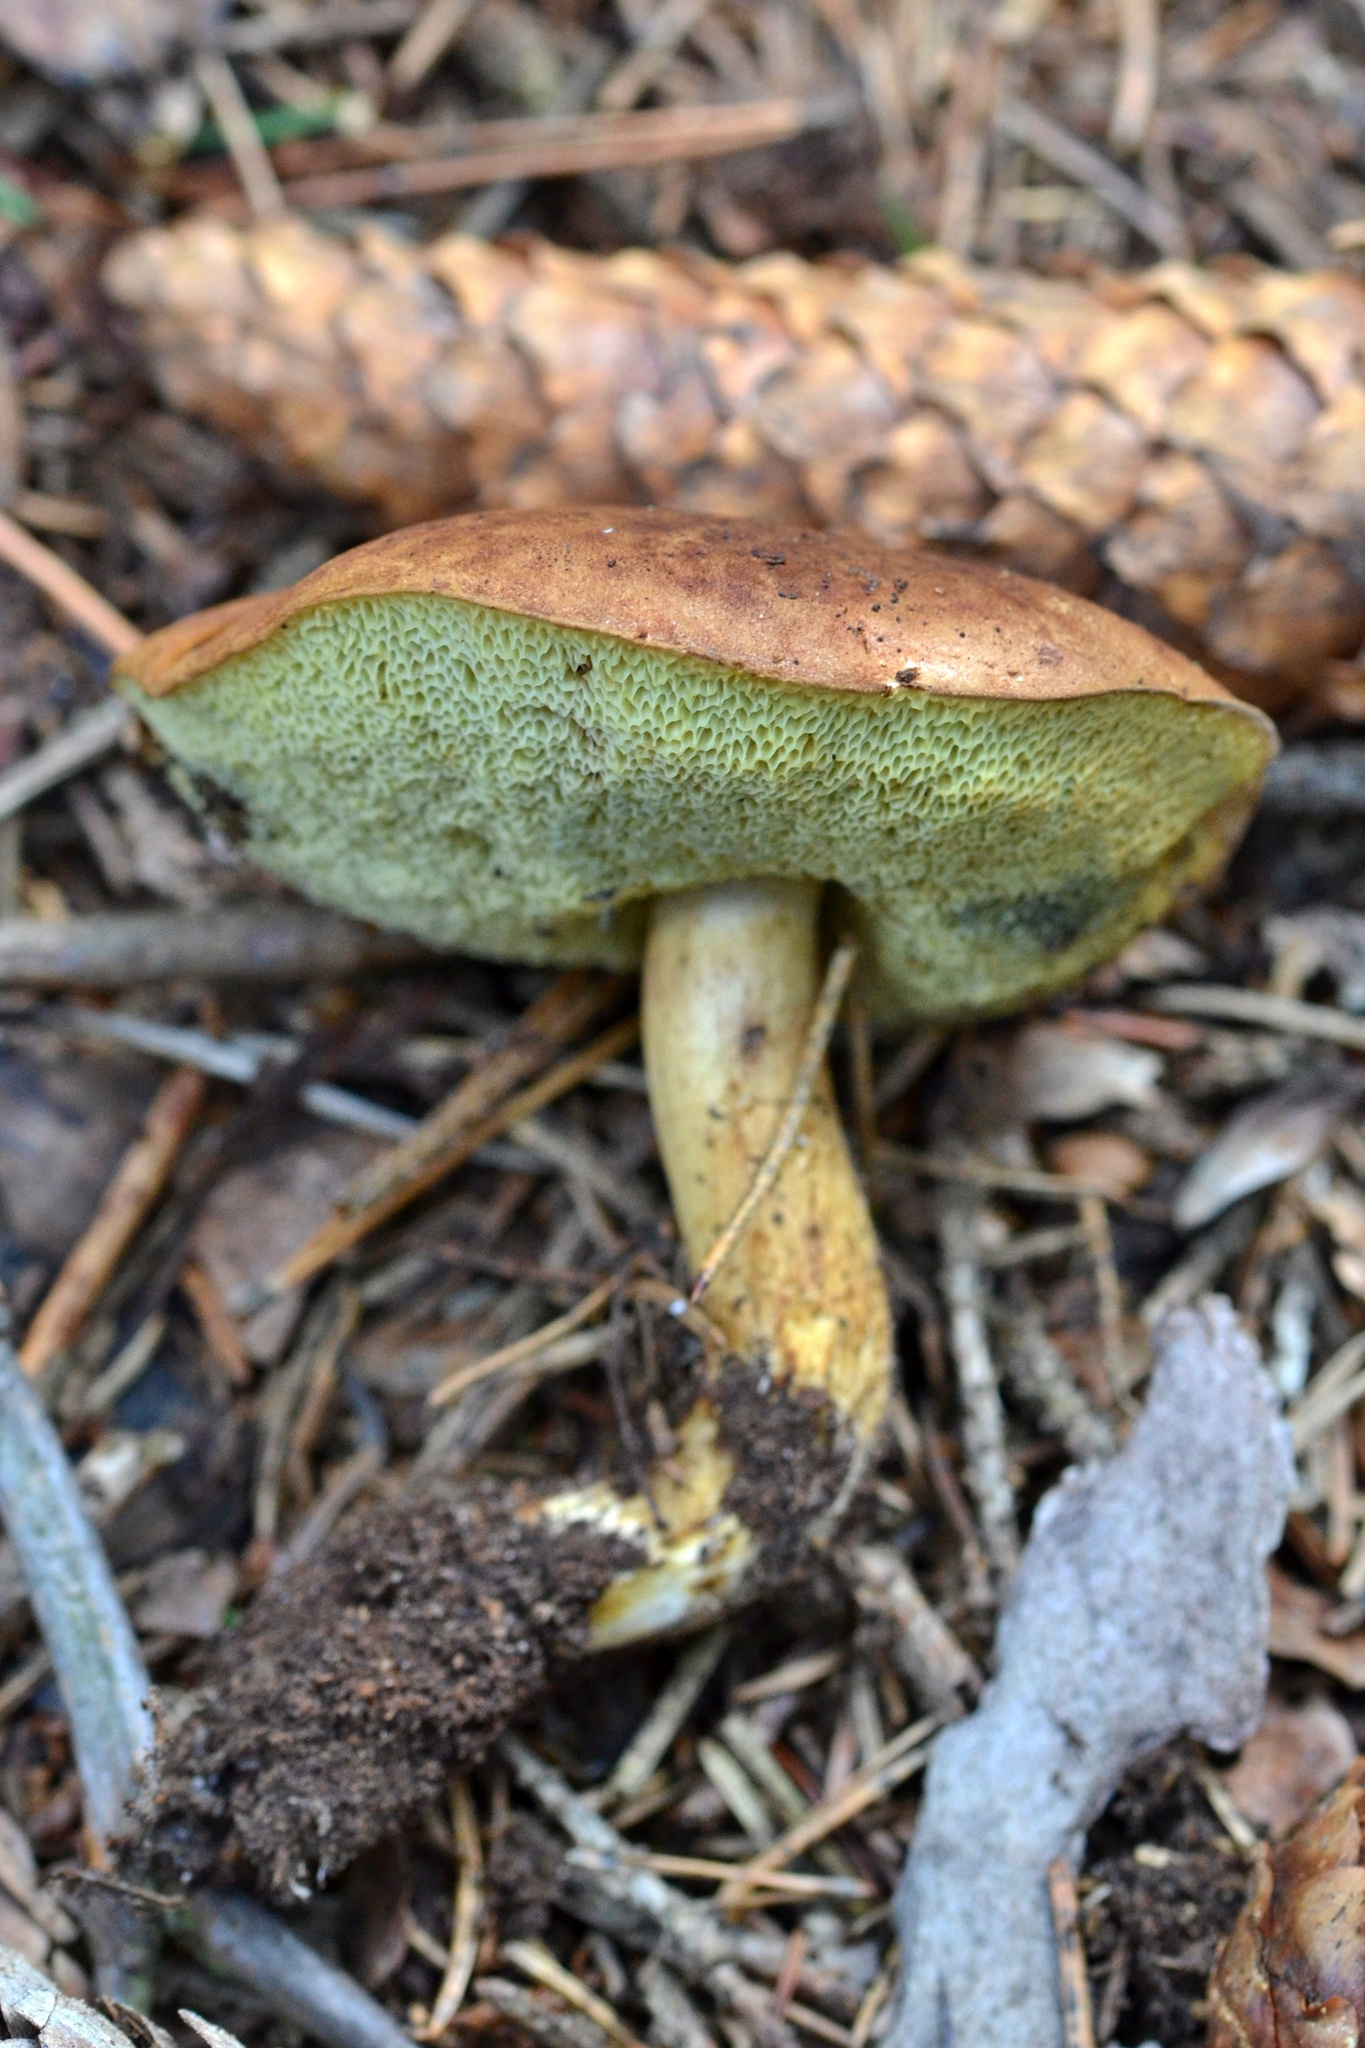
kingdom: Fungi
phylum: Basidiomycota
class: Agaricomycetes
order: Boletales
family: Boletaceae
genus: Imleria
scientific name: Imleria badia
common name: Bay bolete
